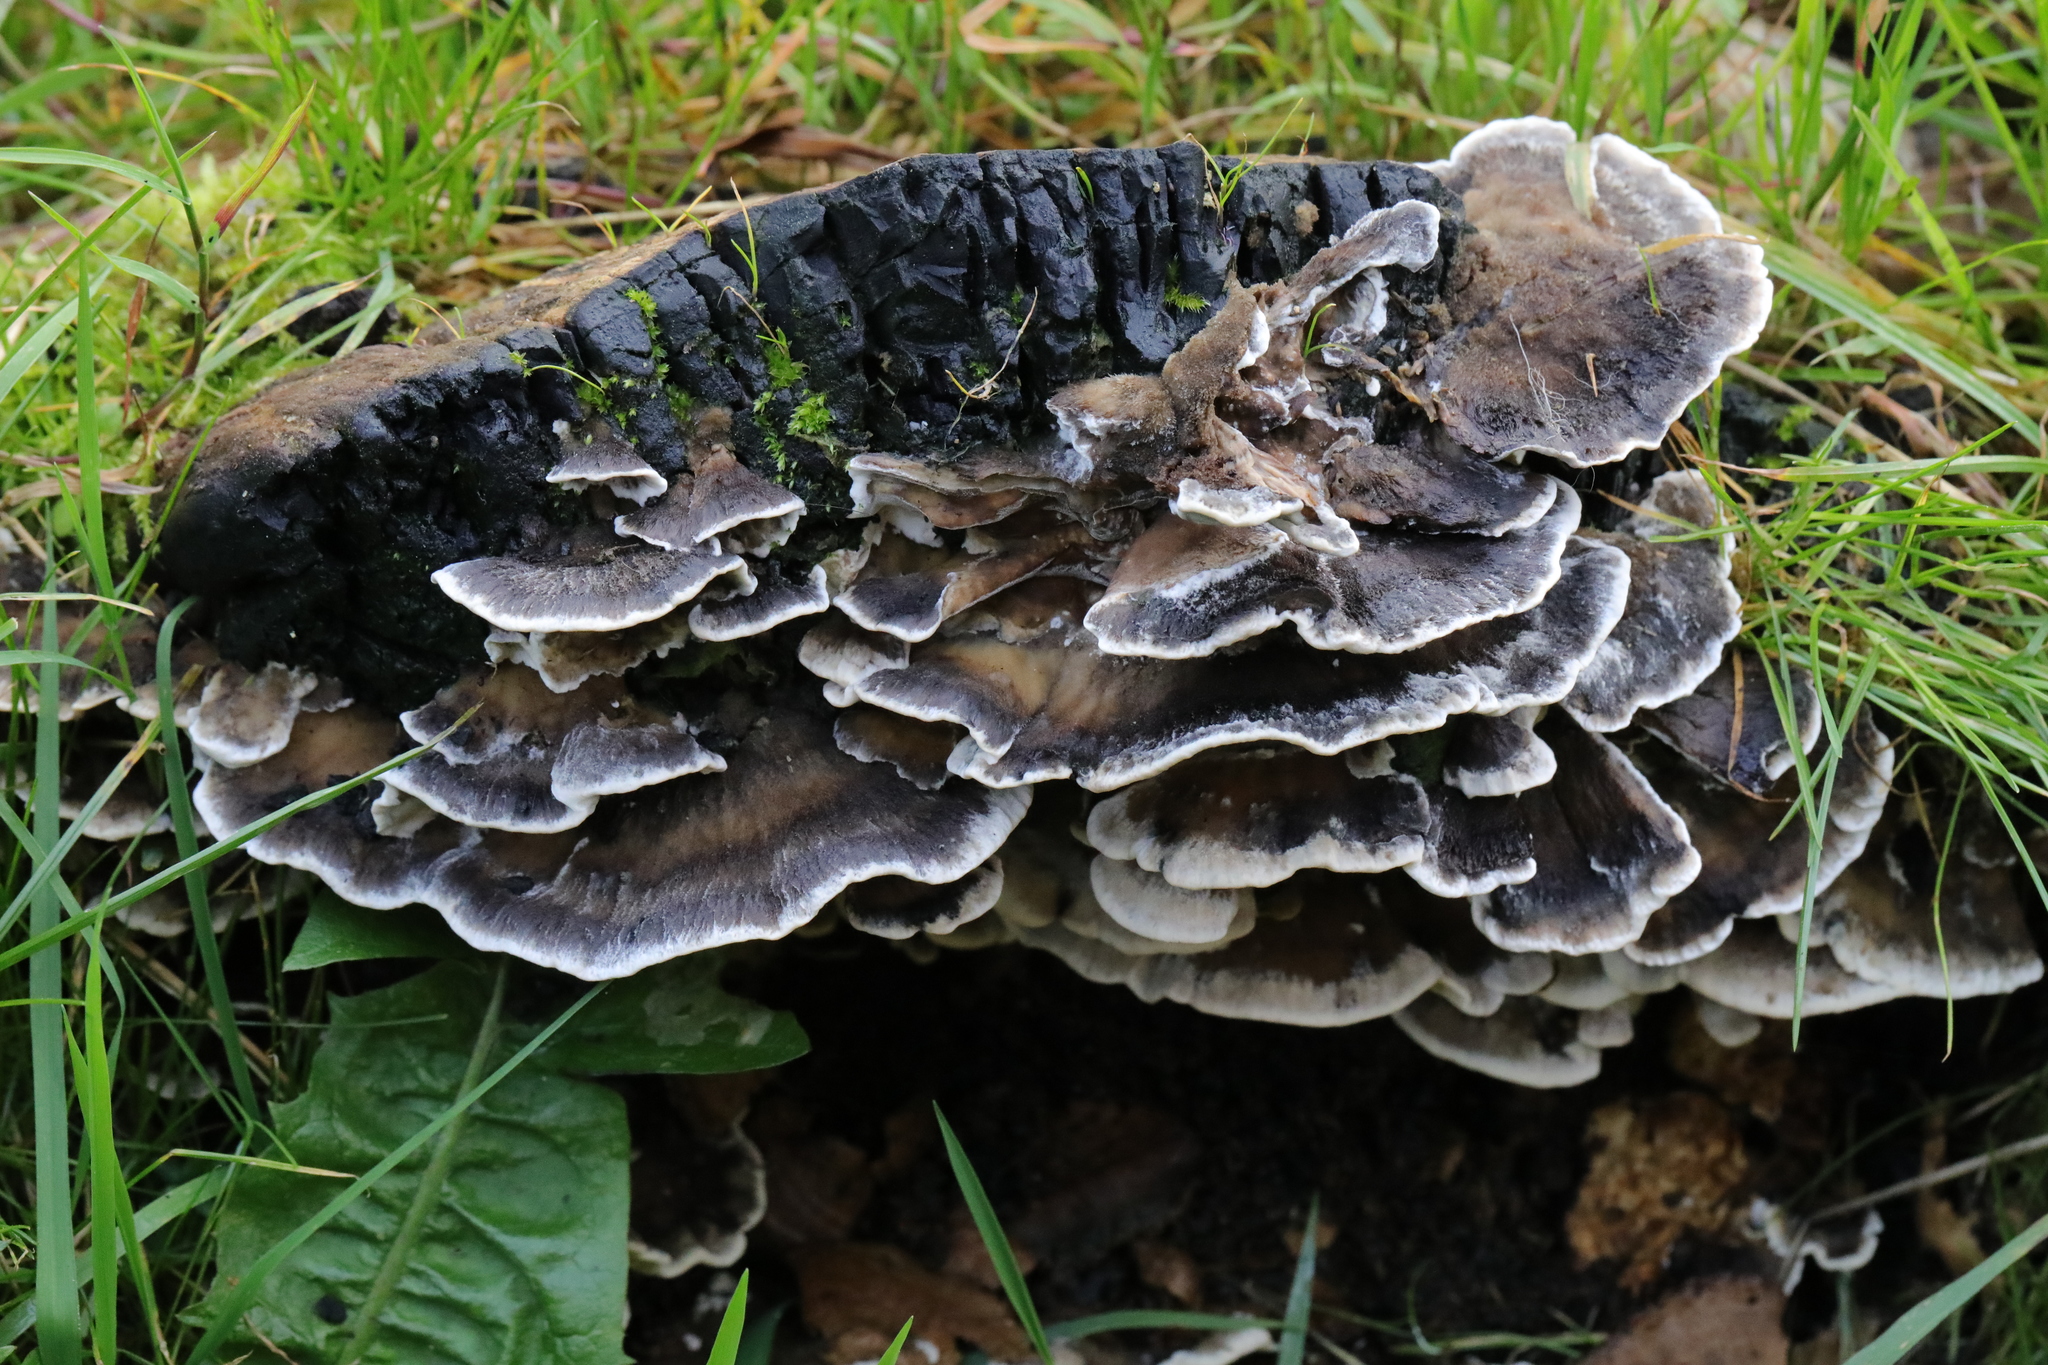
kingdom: Fungi
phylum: Basidiomycota
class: Agaricomycetes
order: Polyporales
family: Phanerochaetaceae
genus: Bjerkandera
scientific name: Bjerkandera adusta
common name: Smoky bracket
